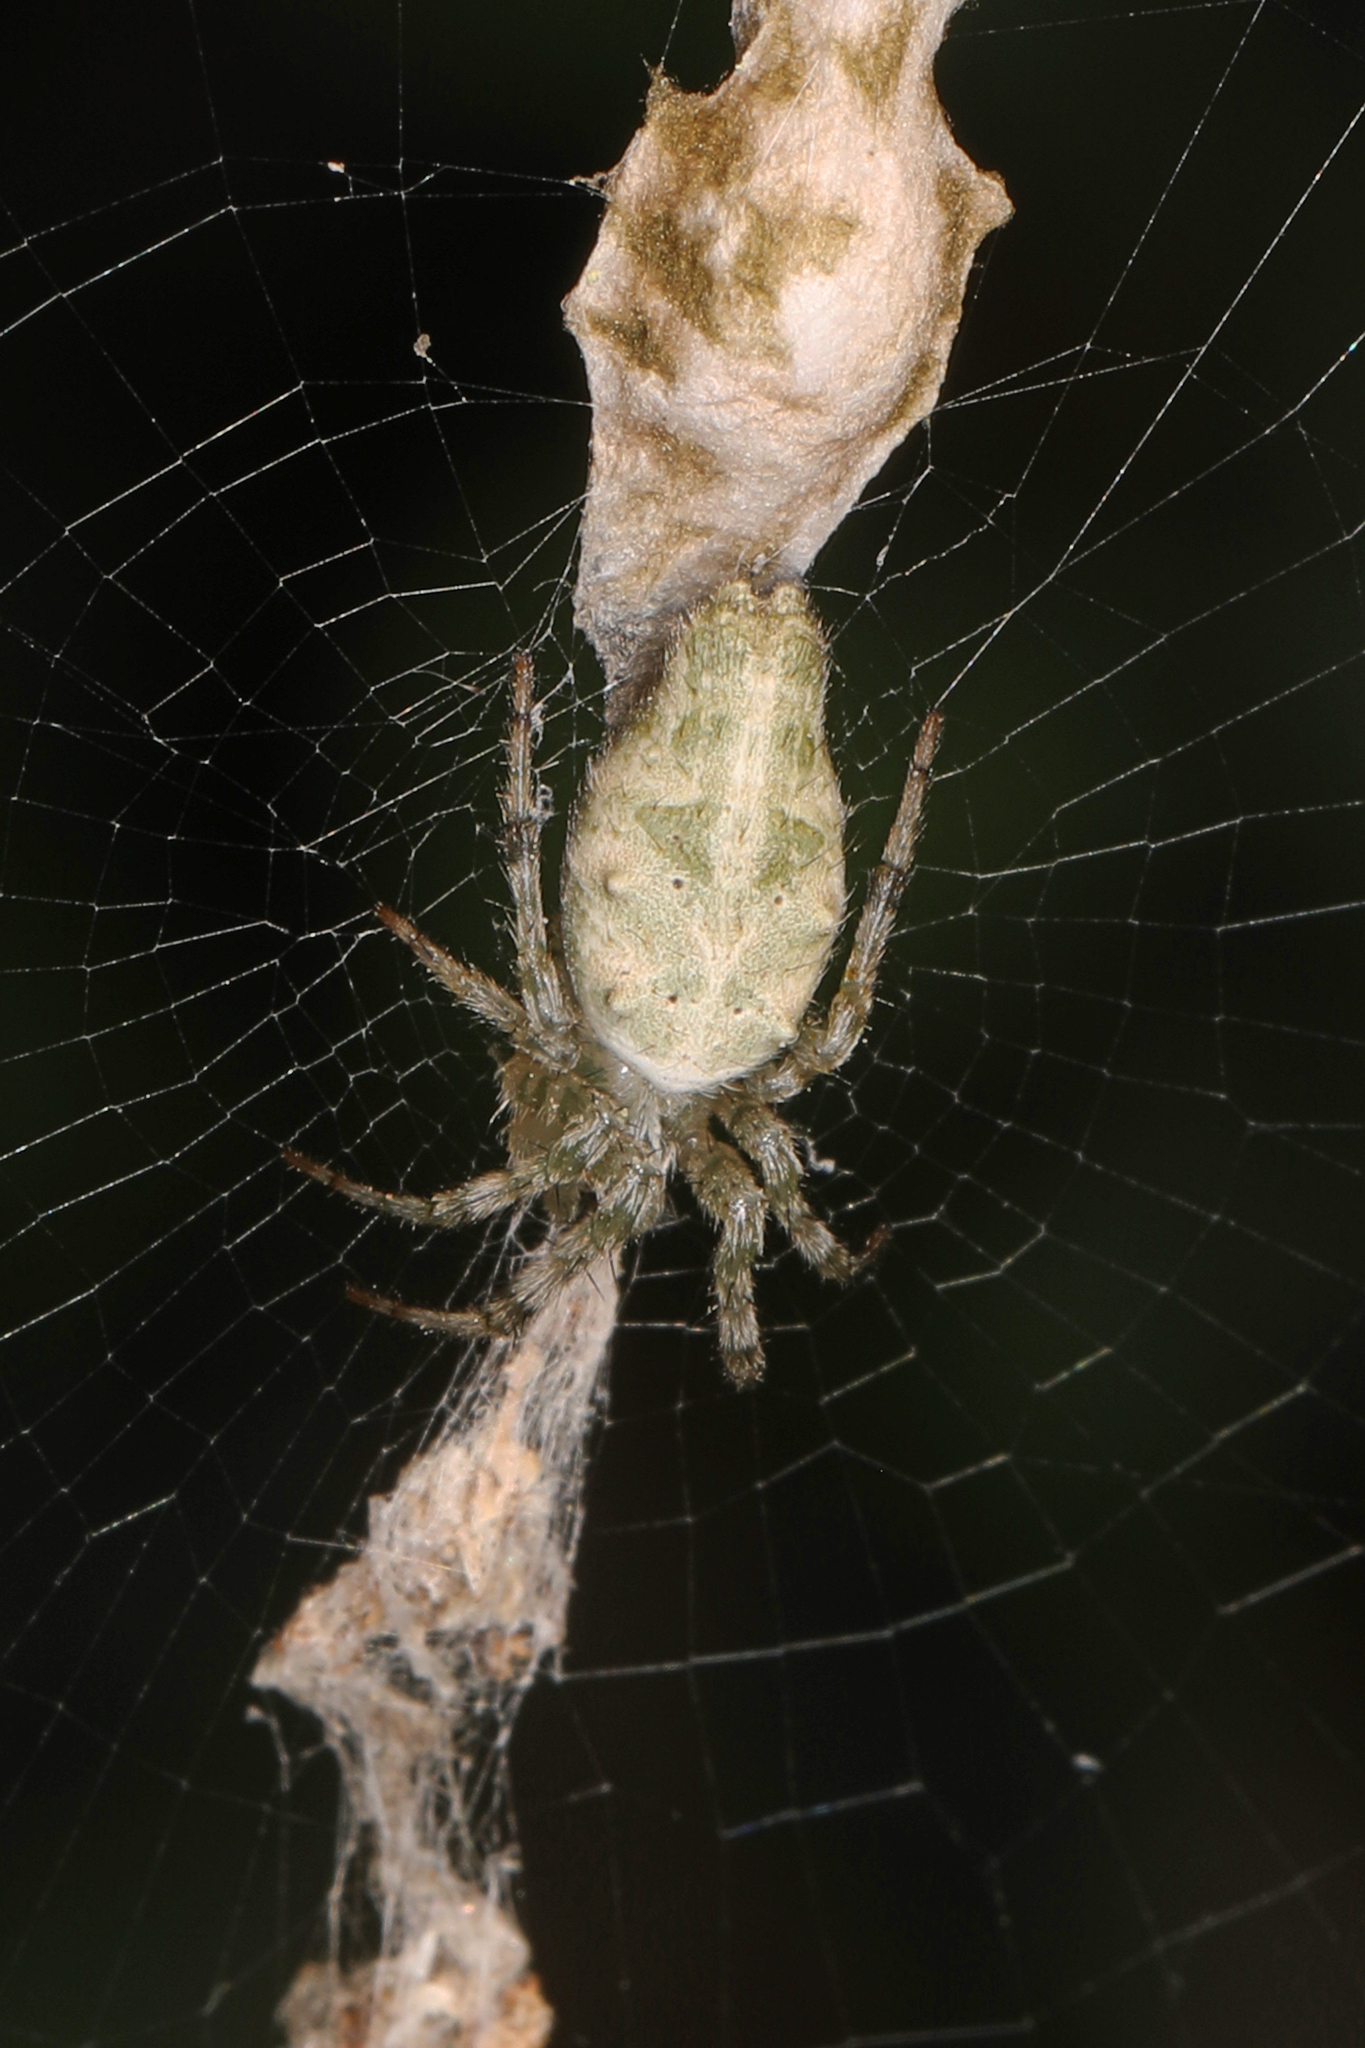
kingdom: Animalia
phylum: Arthropoda
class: Arachnida
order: Araneae
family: Araneidae
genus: Allocyclosa
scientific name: Allocyclosa bifurca
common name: Orb weavers
